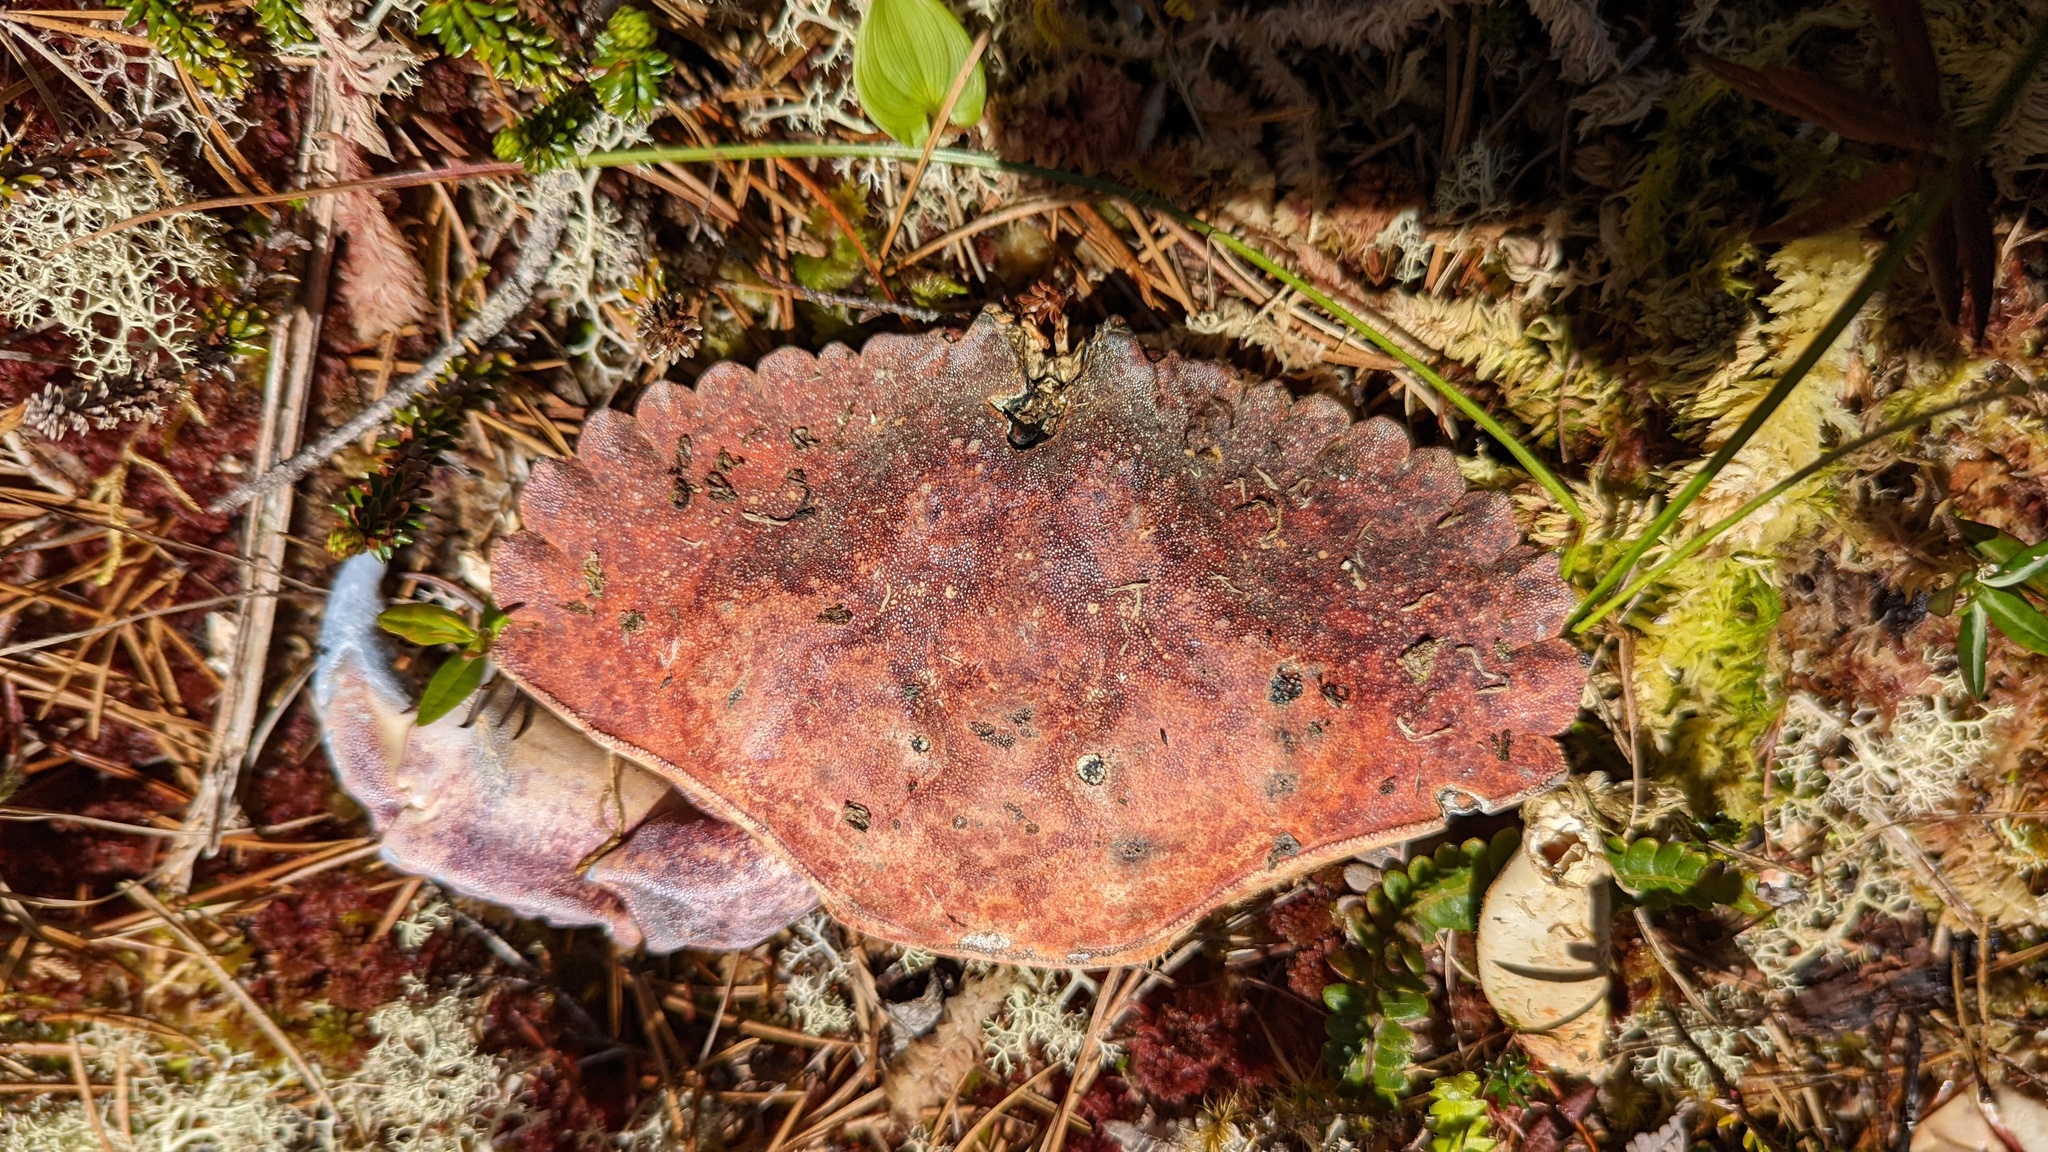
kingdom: Animalia
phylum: Arthropoda
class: Malacostraca
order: Decapoda
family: Cancridae
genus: Cancer
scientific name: Cancer productus
